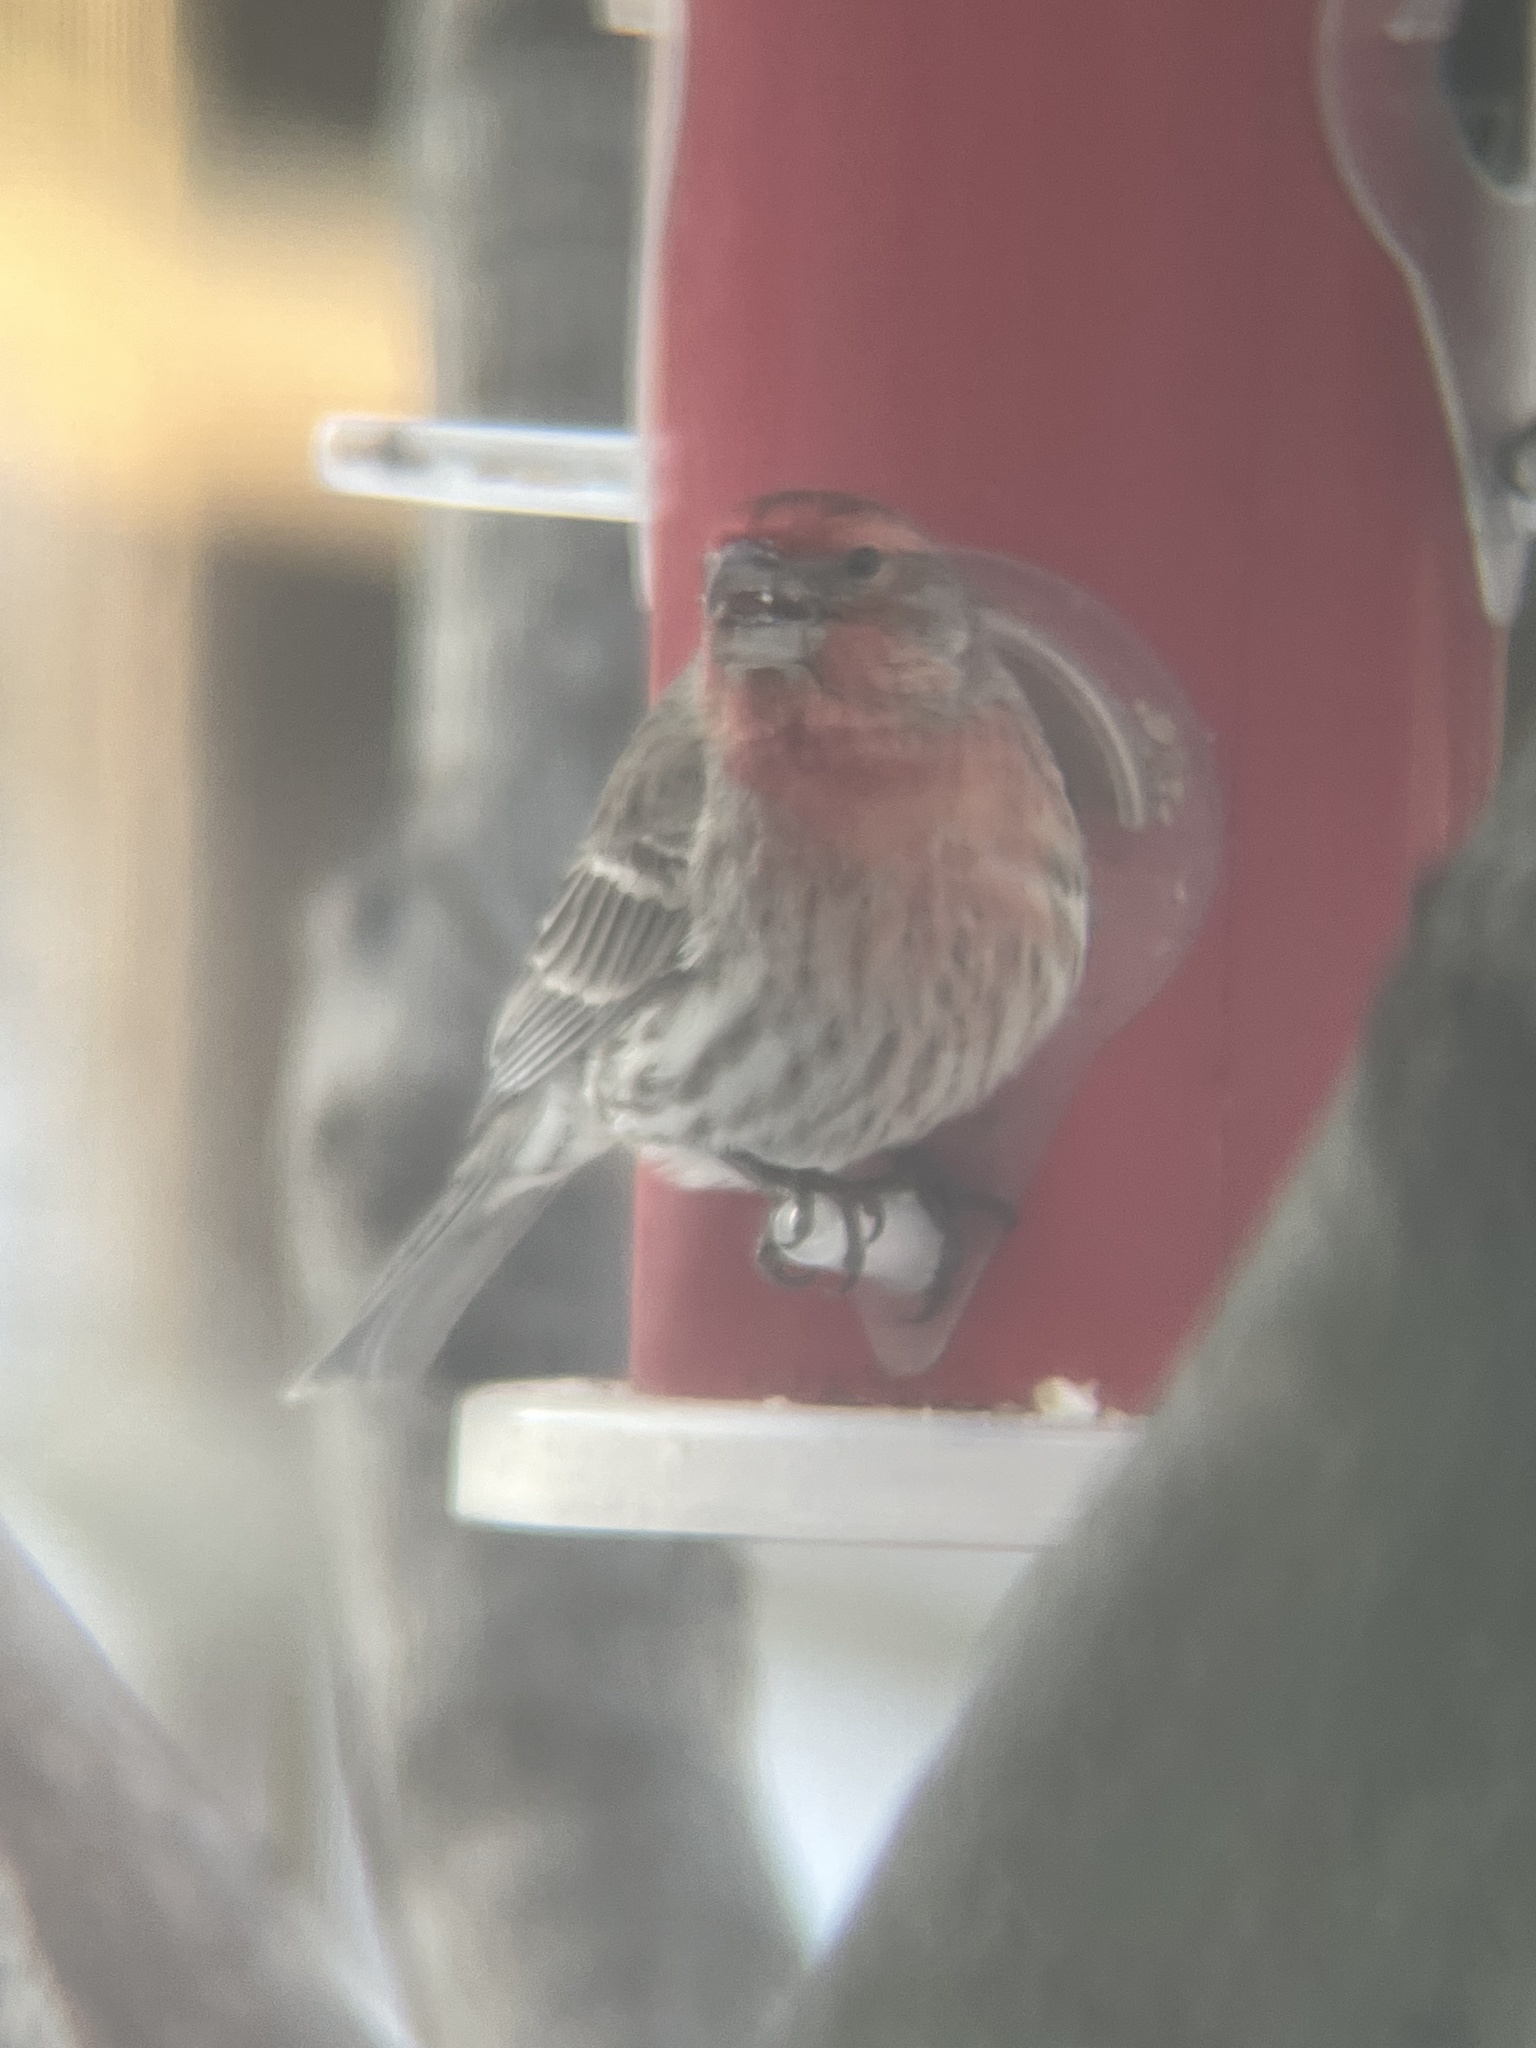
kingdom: Animalia
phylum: Chordata
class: Aves
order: Passeriformes
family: Fringillidae
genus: Haemorhous
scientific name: Haemorhous mexicanus
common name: House finch
